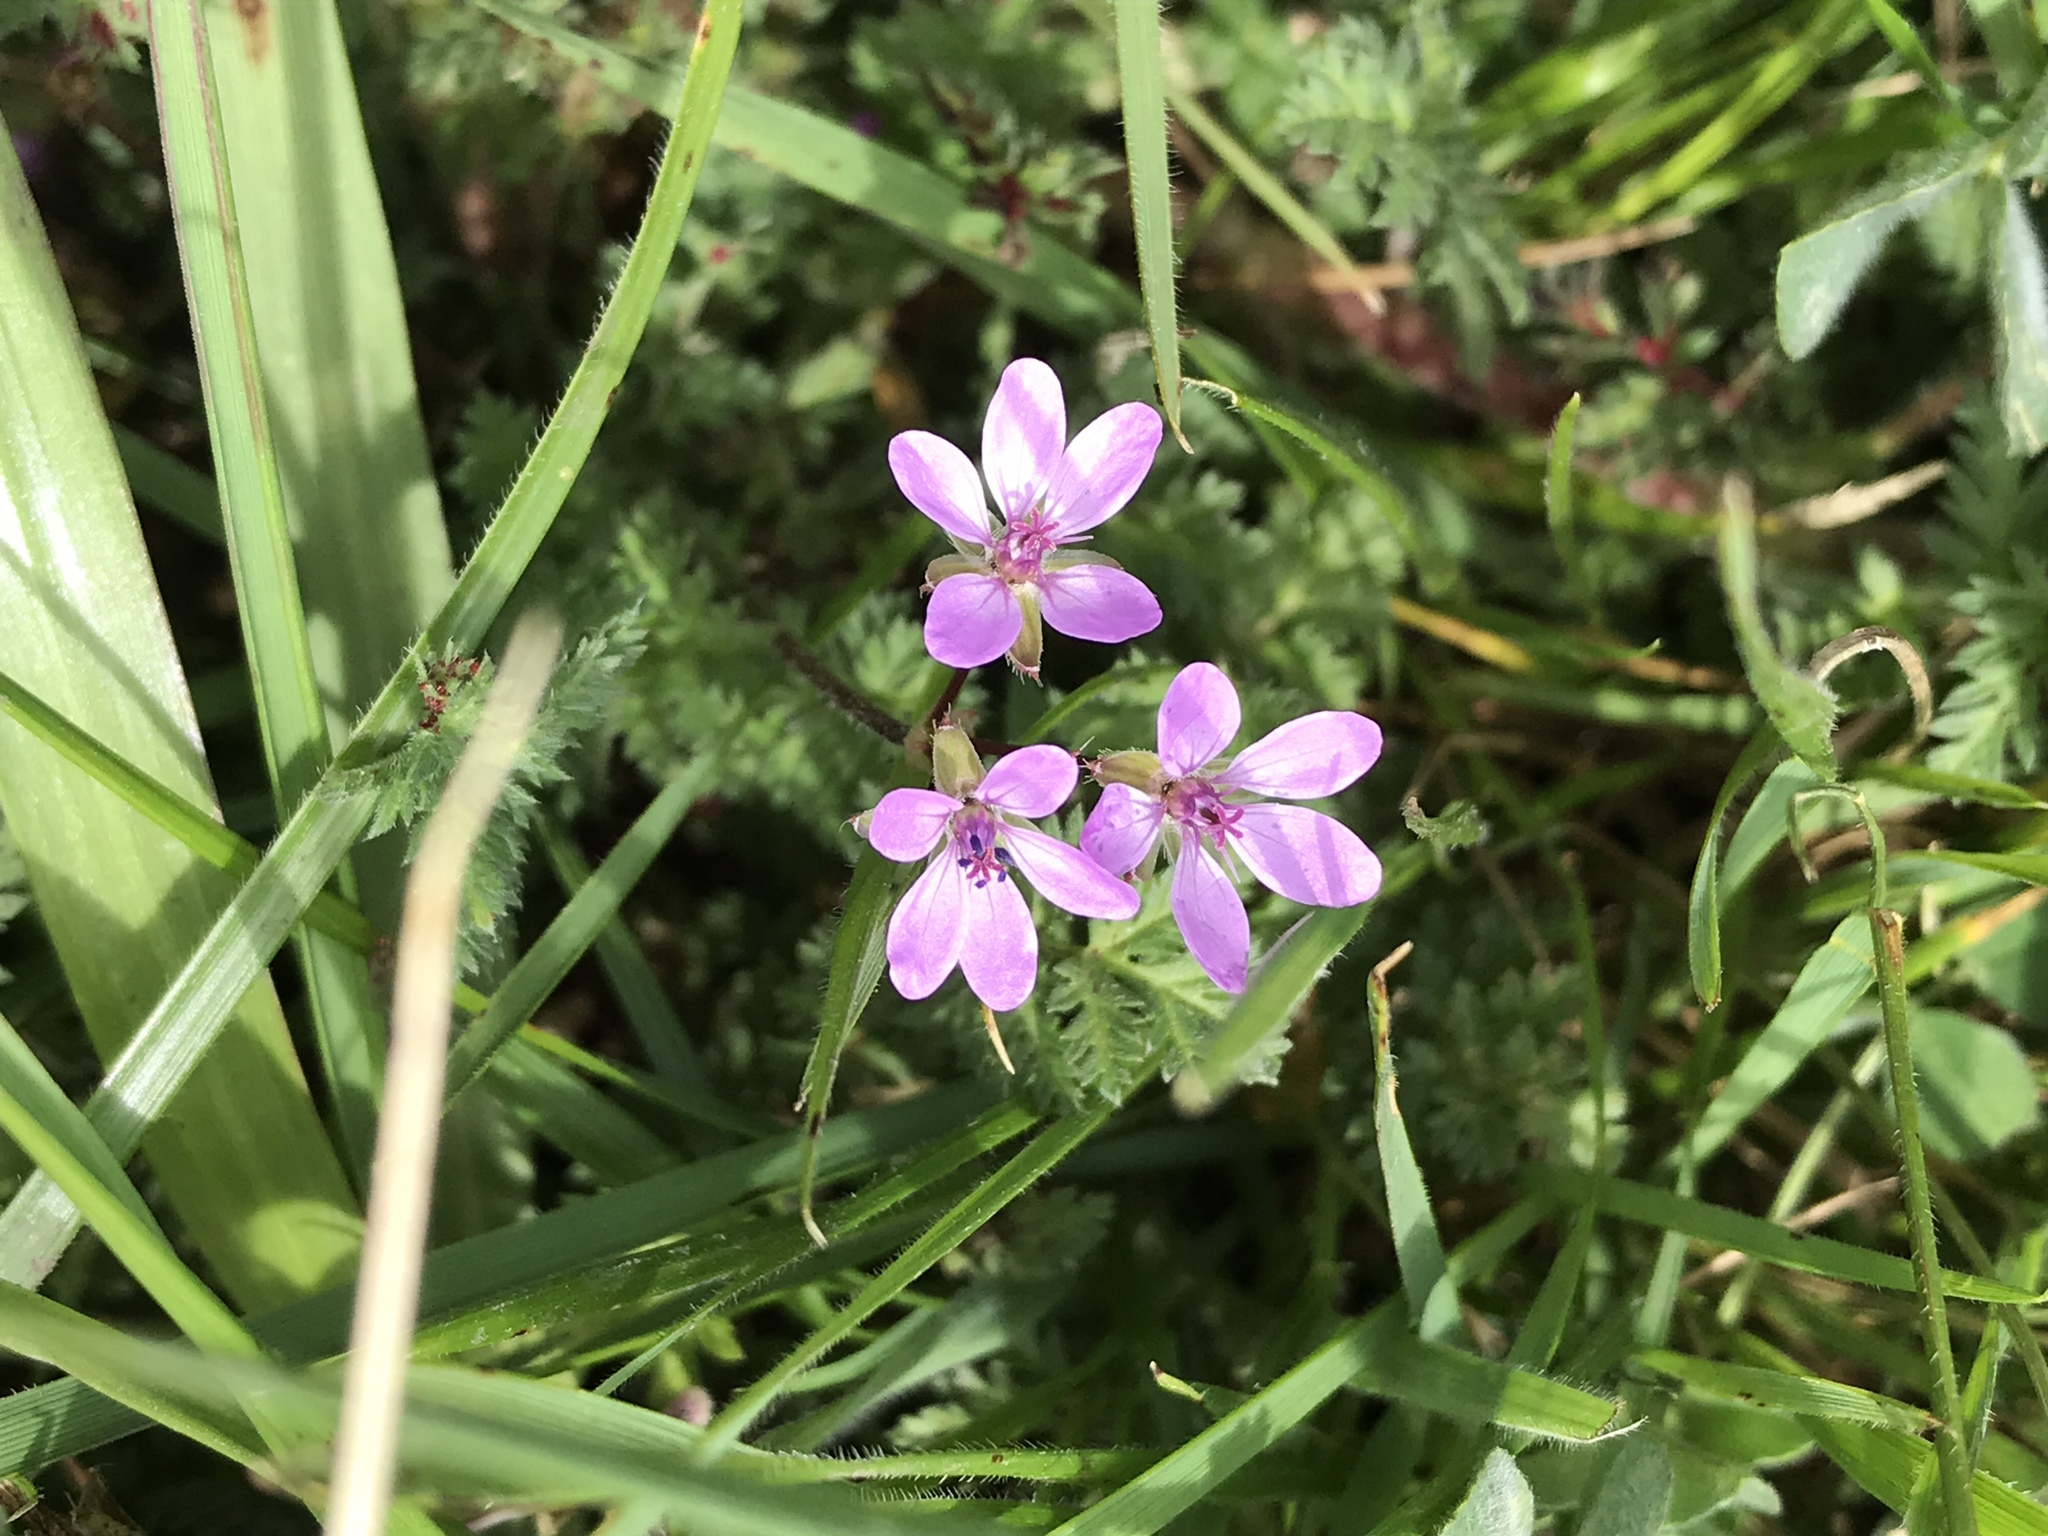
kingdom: Plantae
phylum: Tracheophyta
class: Magnoliopsida
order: Geraniales
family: Geraniaceae
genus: Erodium
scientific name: Erodium cicutarium
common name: Common stork's-bill
